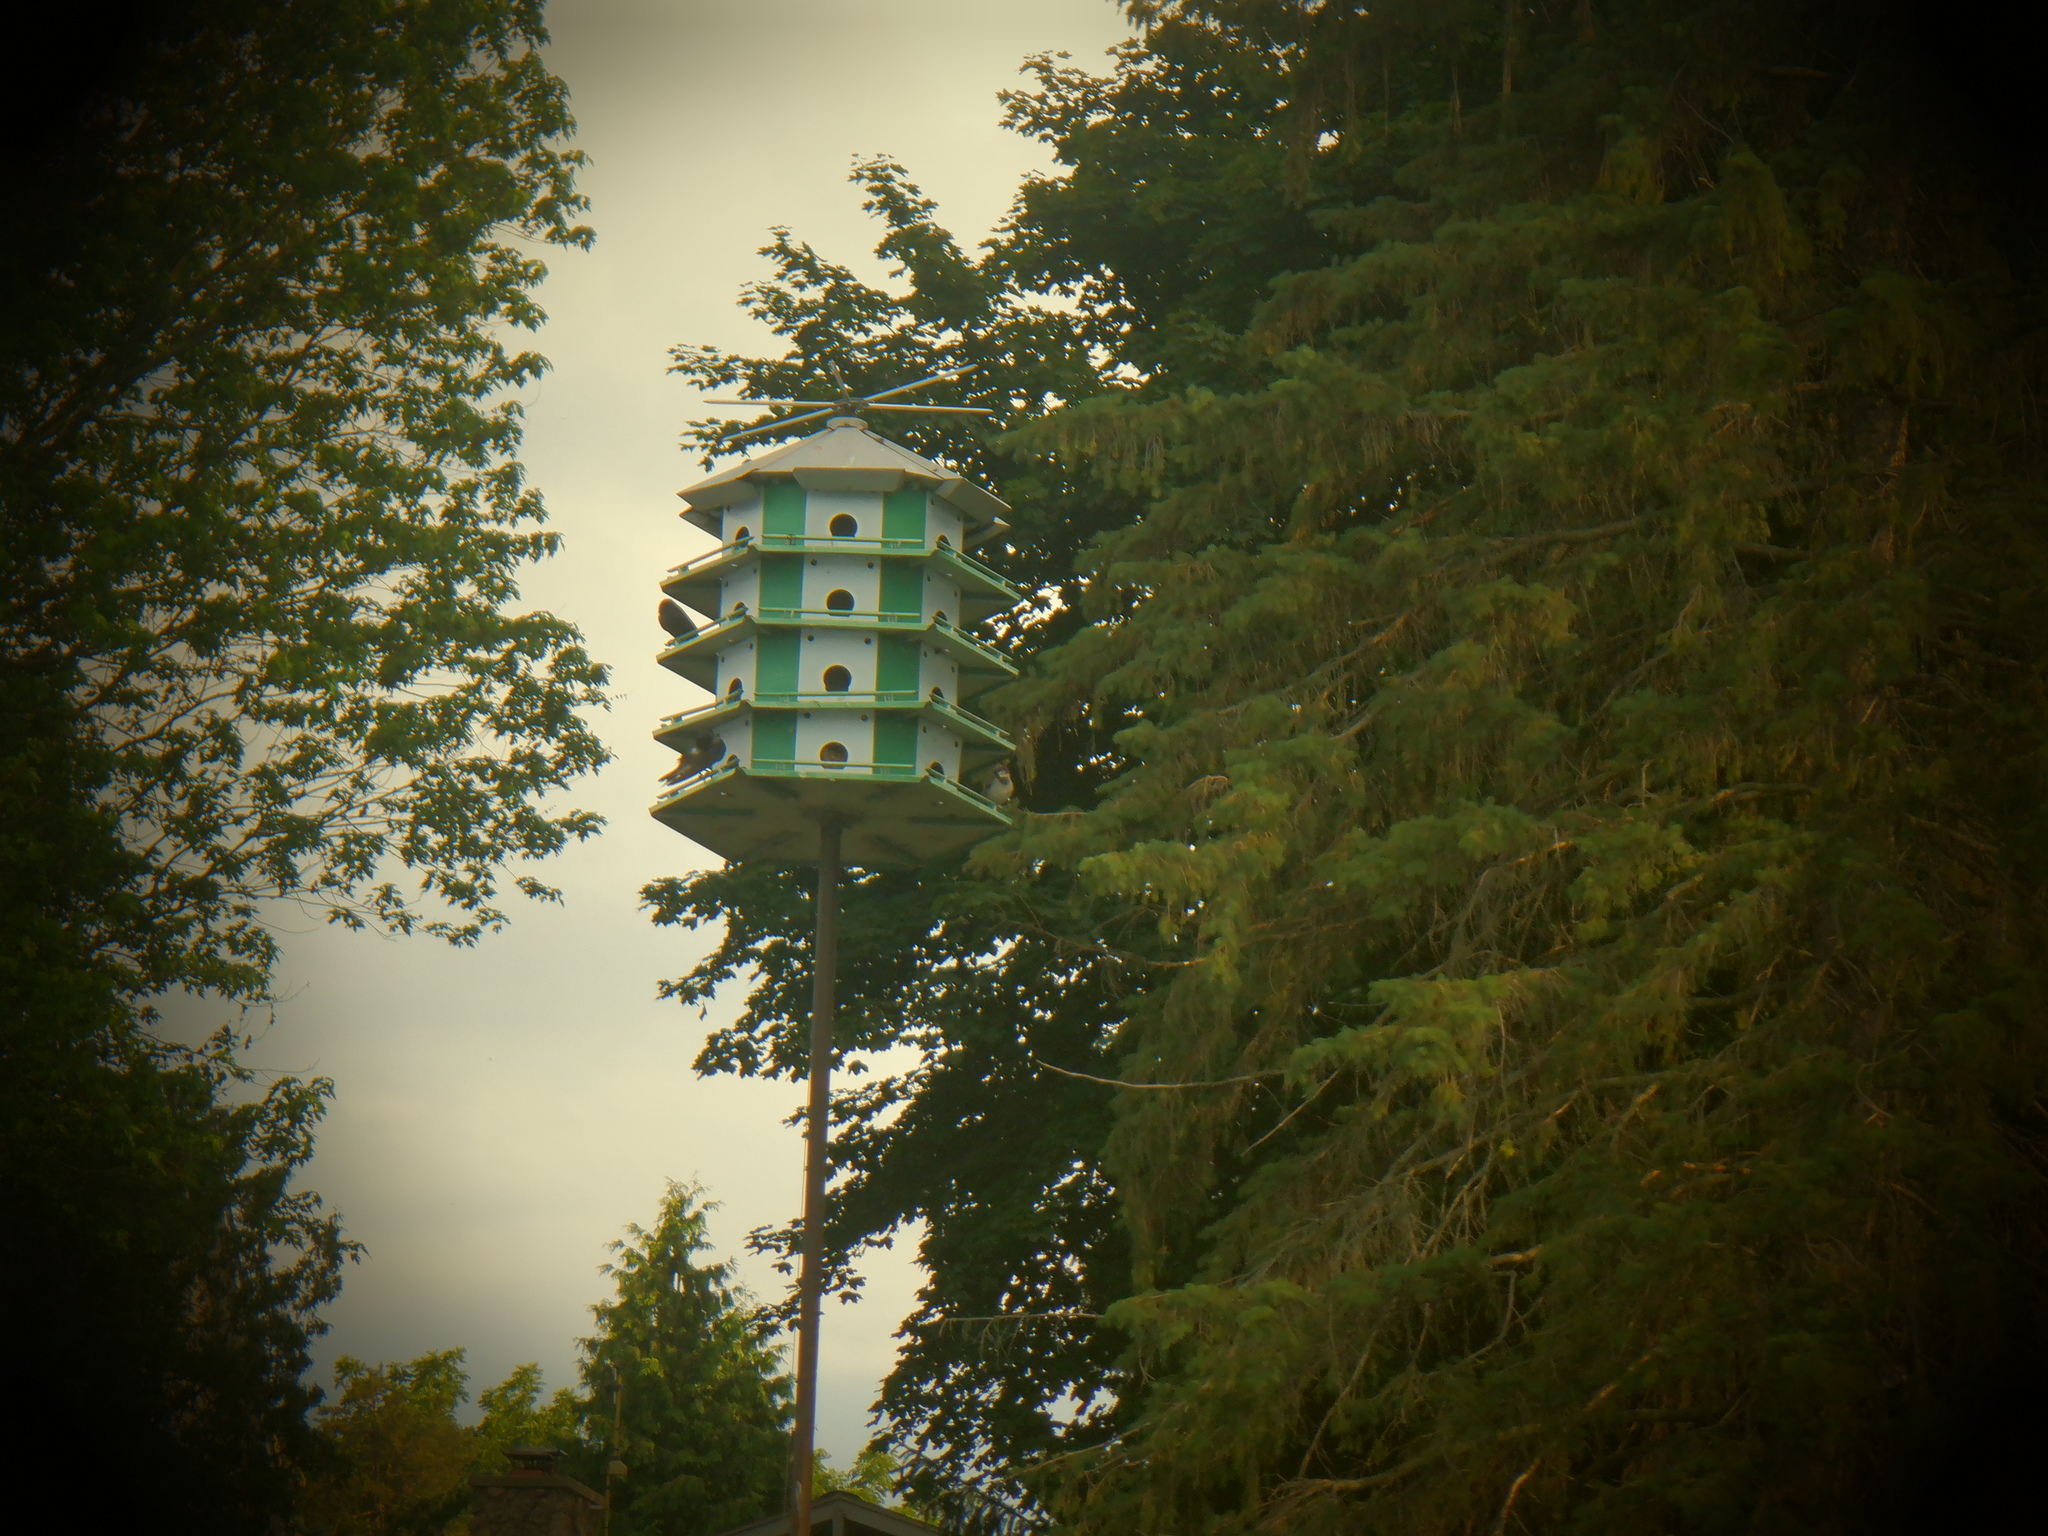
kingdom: Animalia
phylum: Chordata
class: Aves
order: Passeriformes
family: Passeridae
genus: Passer
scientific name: Passer domesticus
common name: House sparrow
